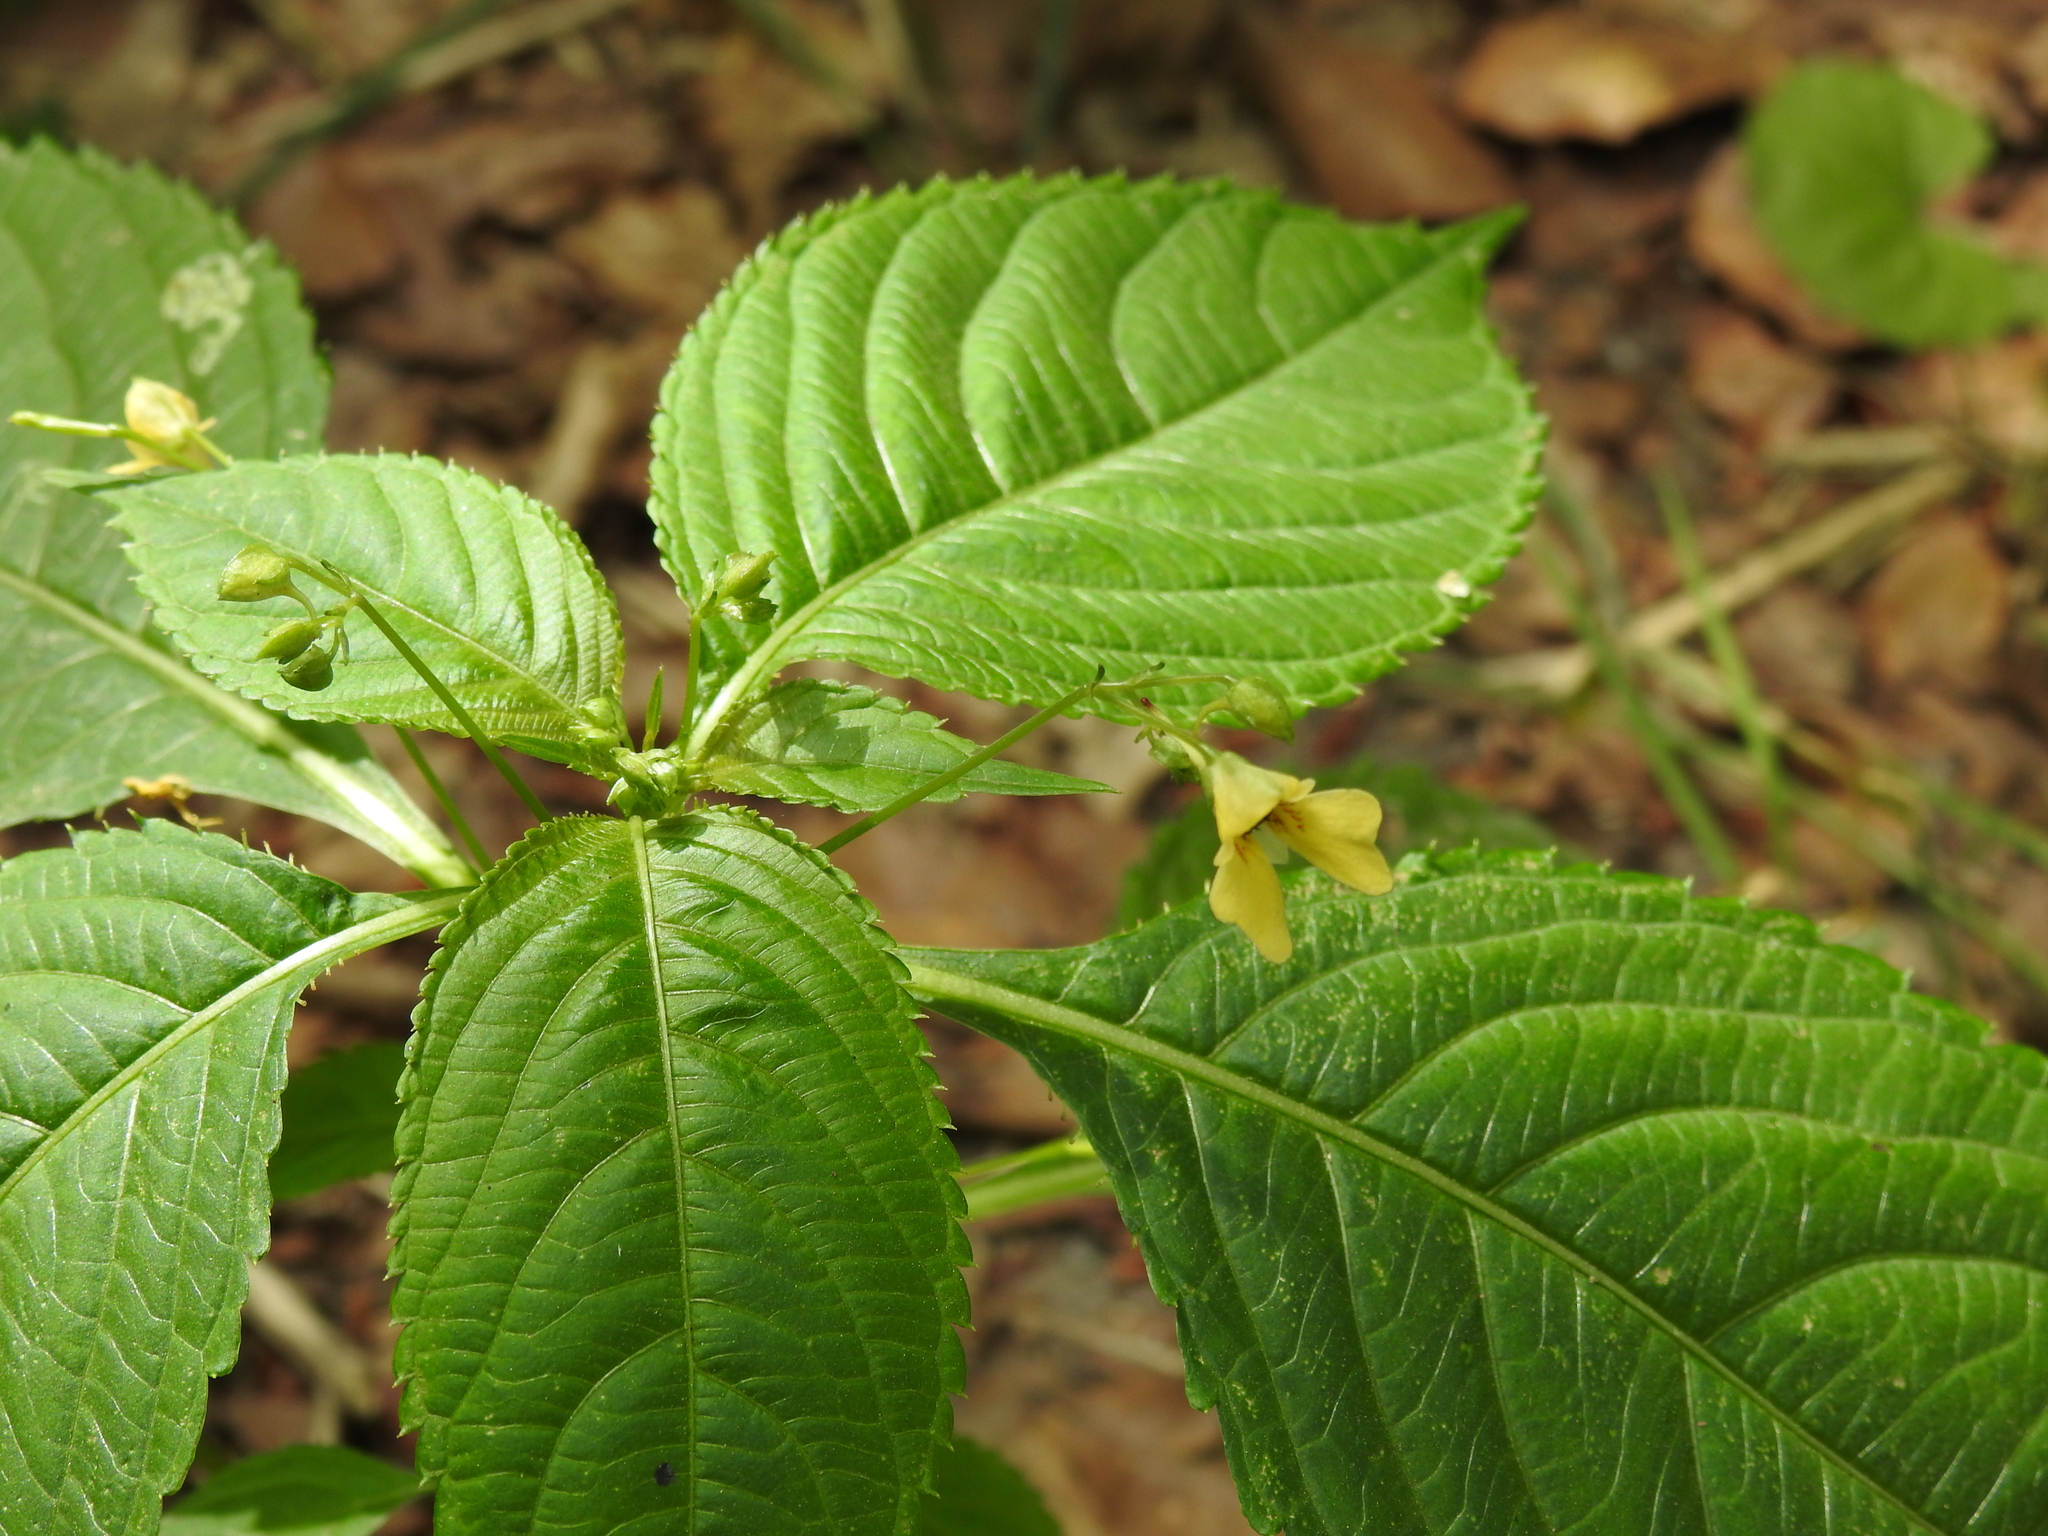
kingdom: Plantae
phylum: Tracheophyta
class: Magnoliopsida
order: Ericales
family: Balsaminaceae
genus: Impatiens
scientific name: Impatiens parviflora
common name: Small balsam
